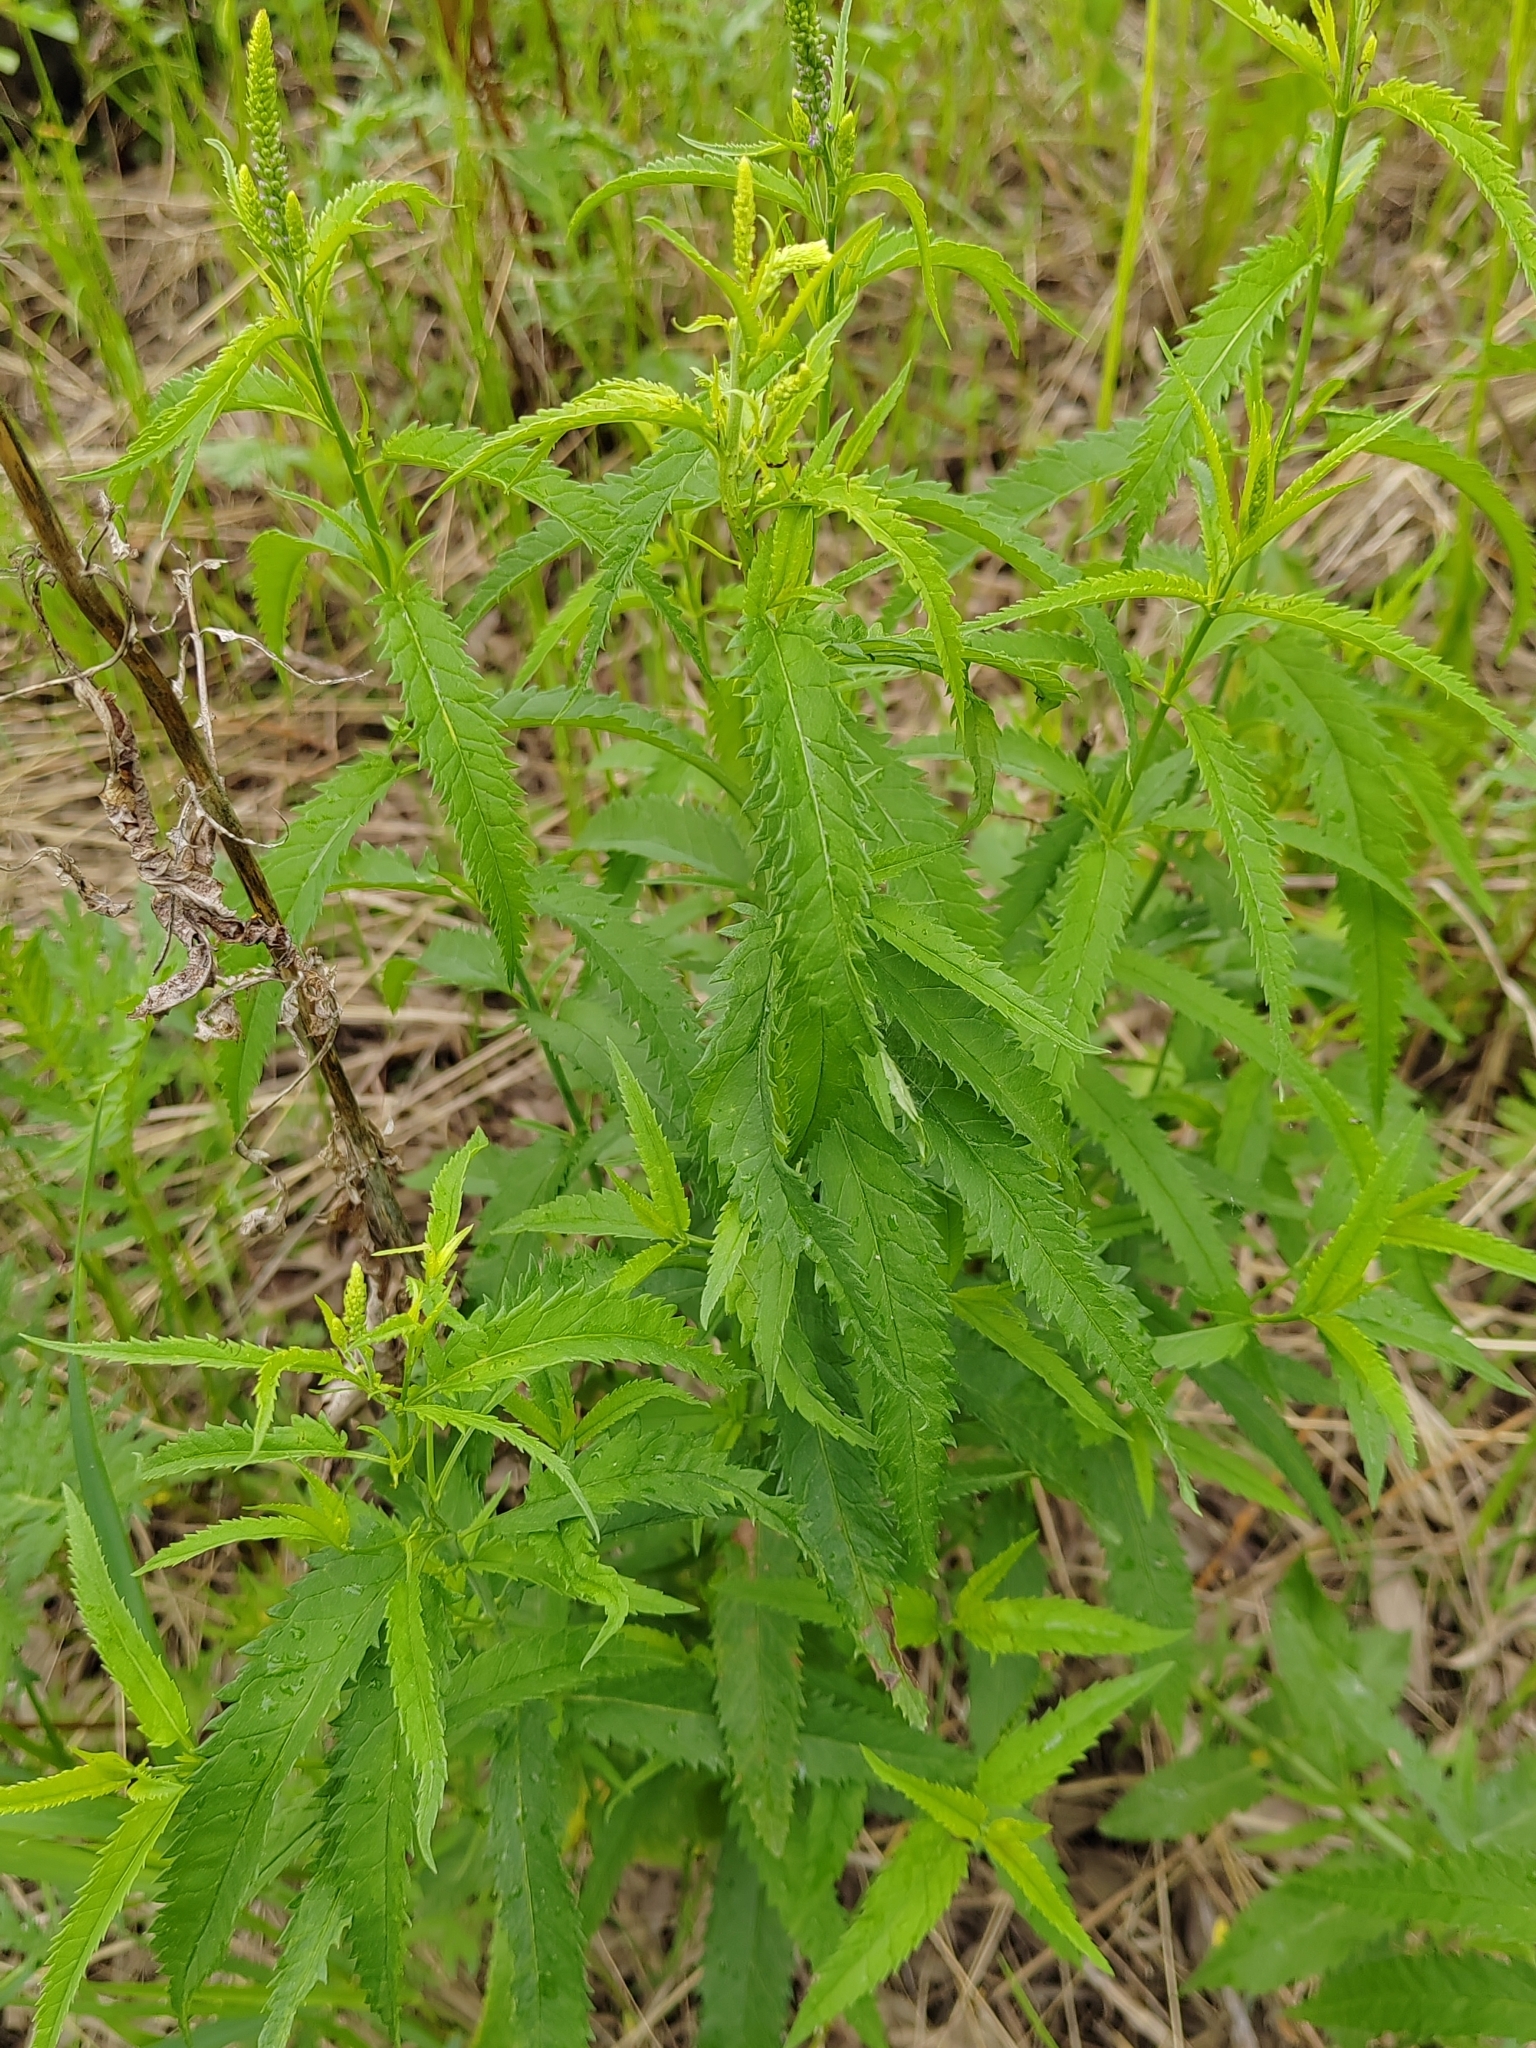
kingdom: Plantae
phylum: Tracheophyta
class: Magnoliopsida
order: Lamiales
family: Plantaginaceae
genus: Veronica
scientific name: Veronica longifolia
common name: Garden speedwell
